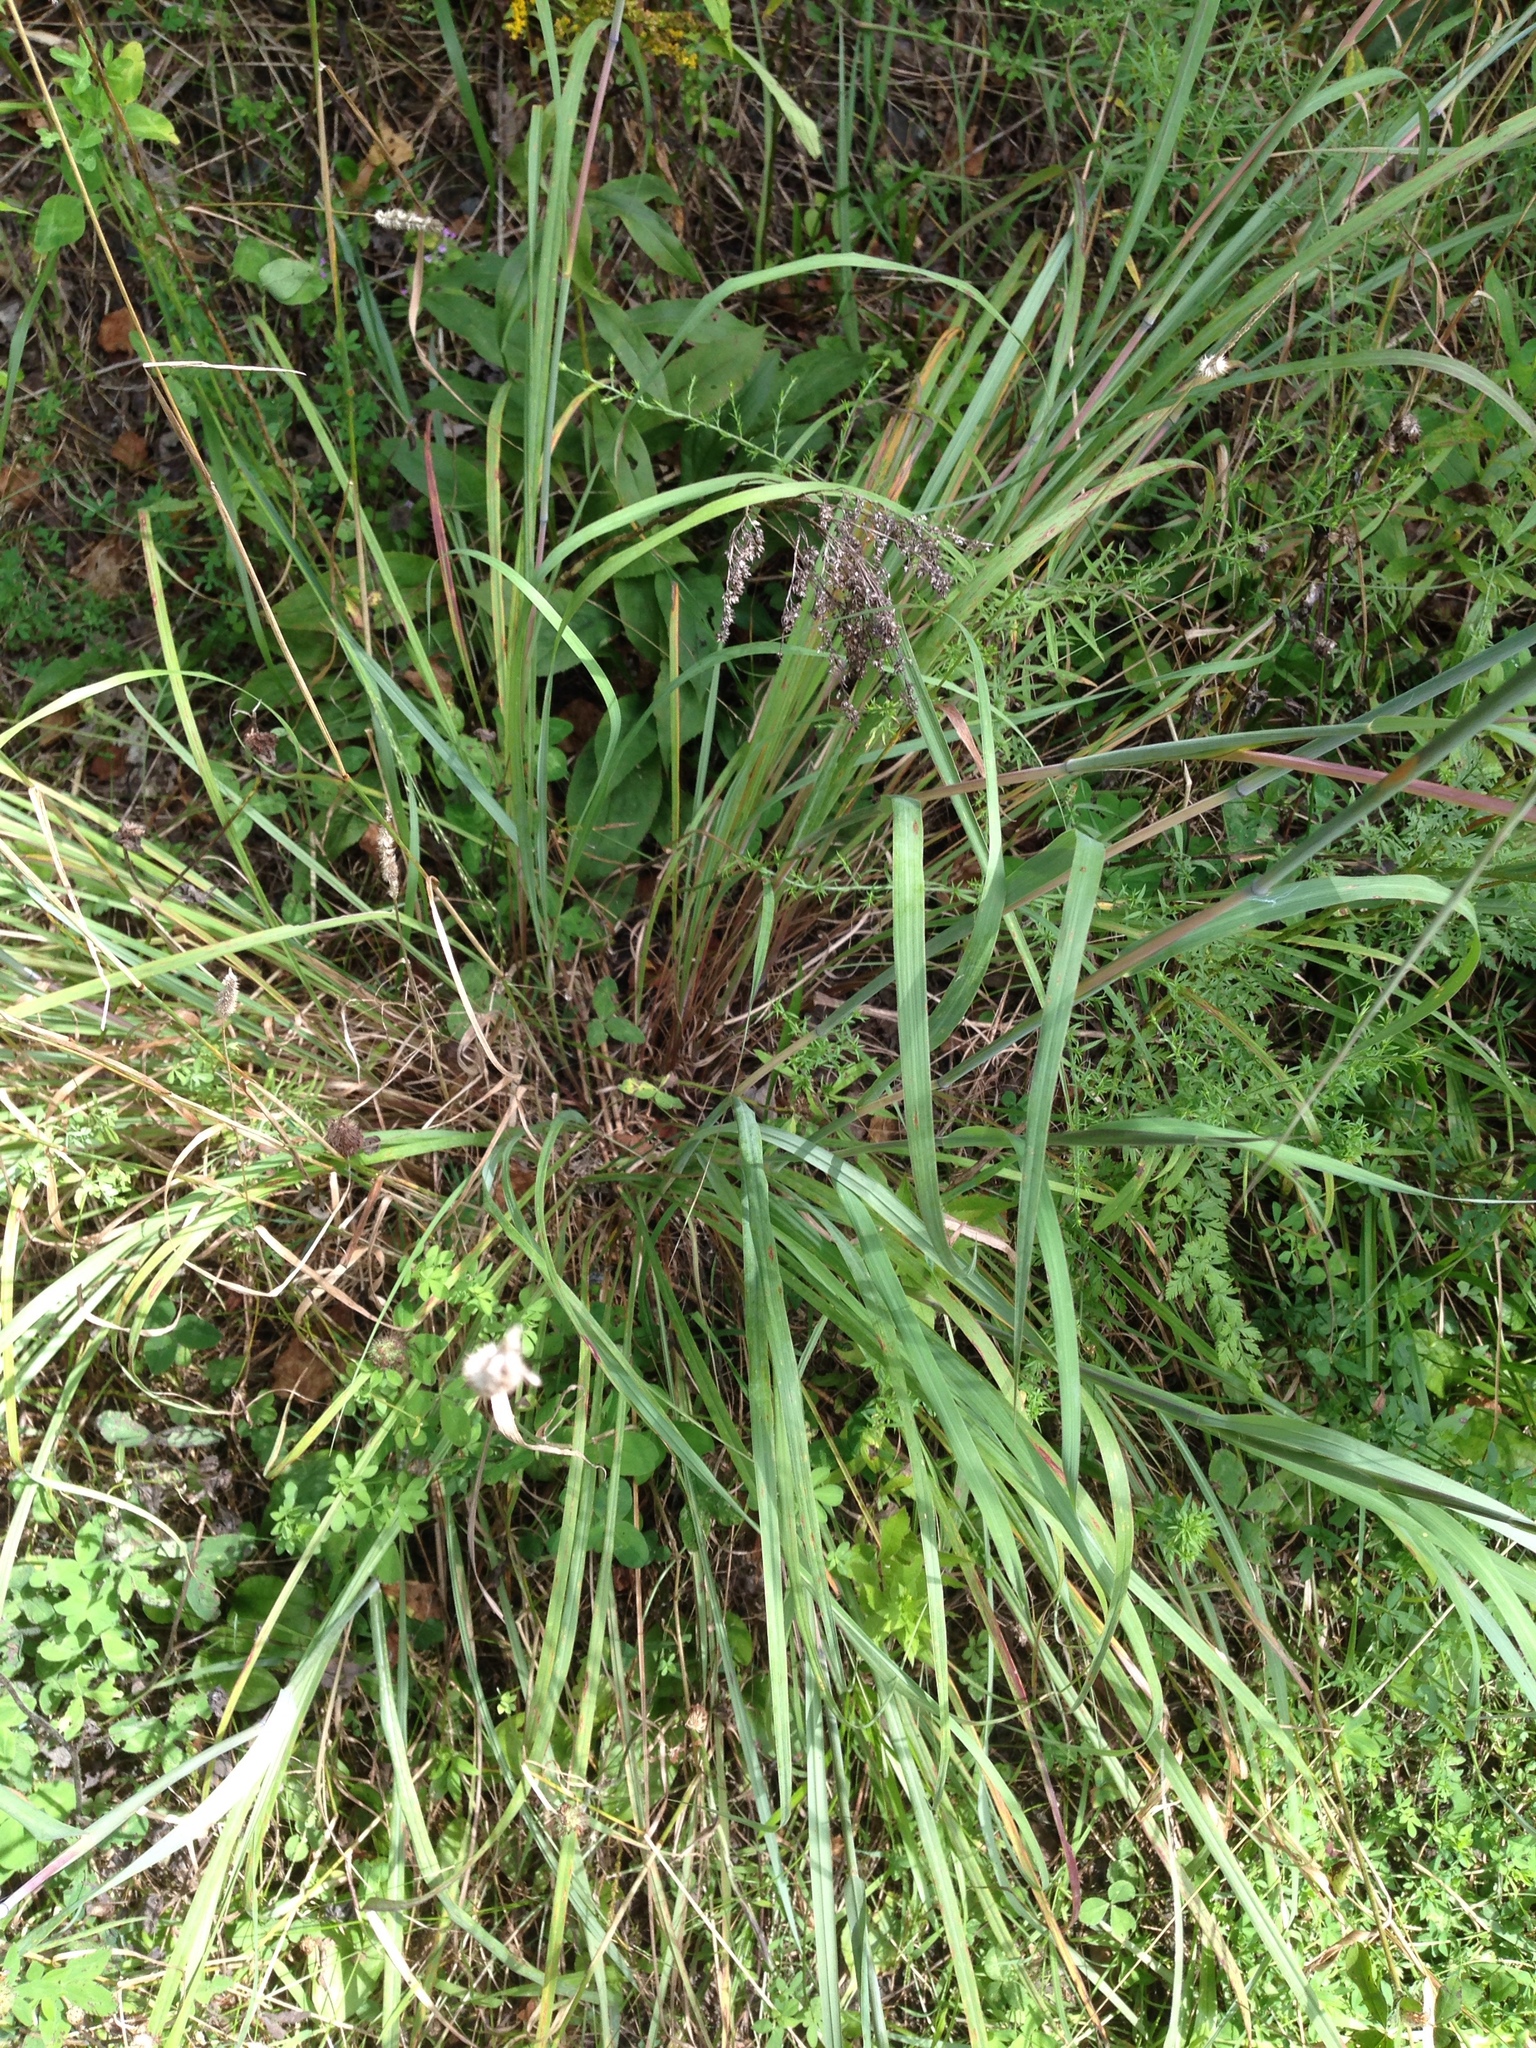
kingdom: Plantae
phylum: Tracheophyta
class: Liliopsida
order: Poales
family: Poaceae
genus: Andropogon
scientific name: Andropogon gerardi
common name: Big bluestem
